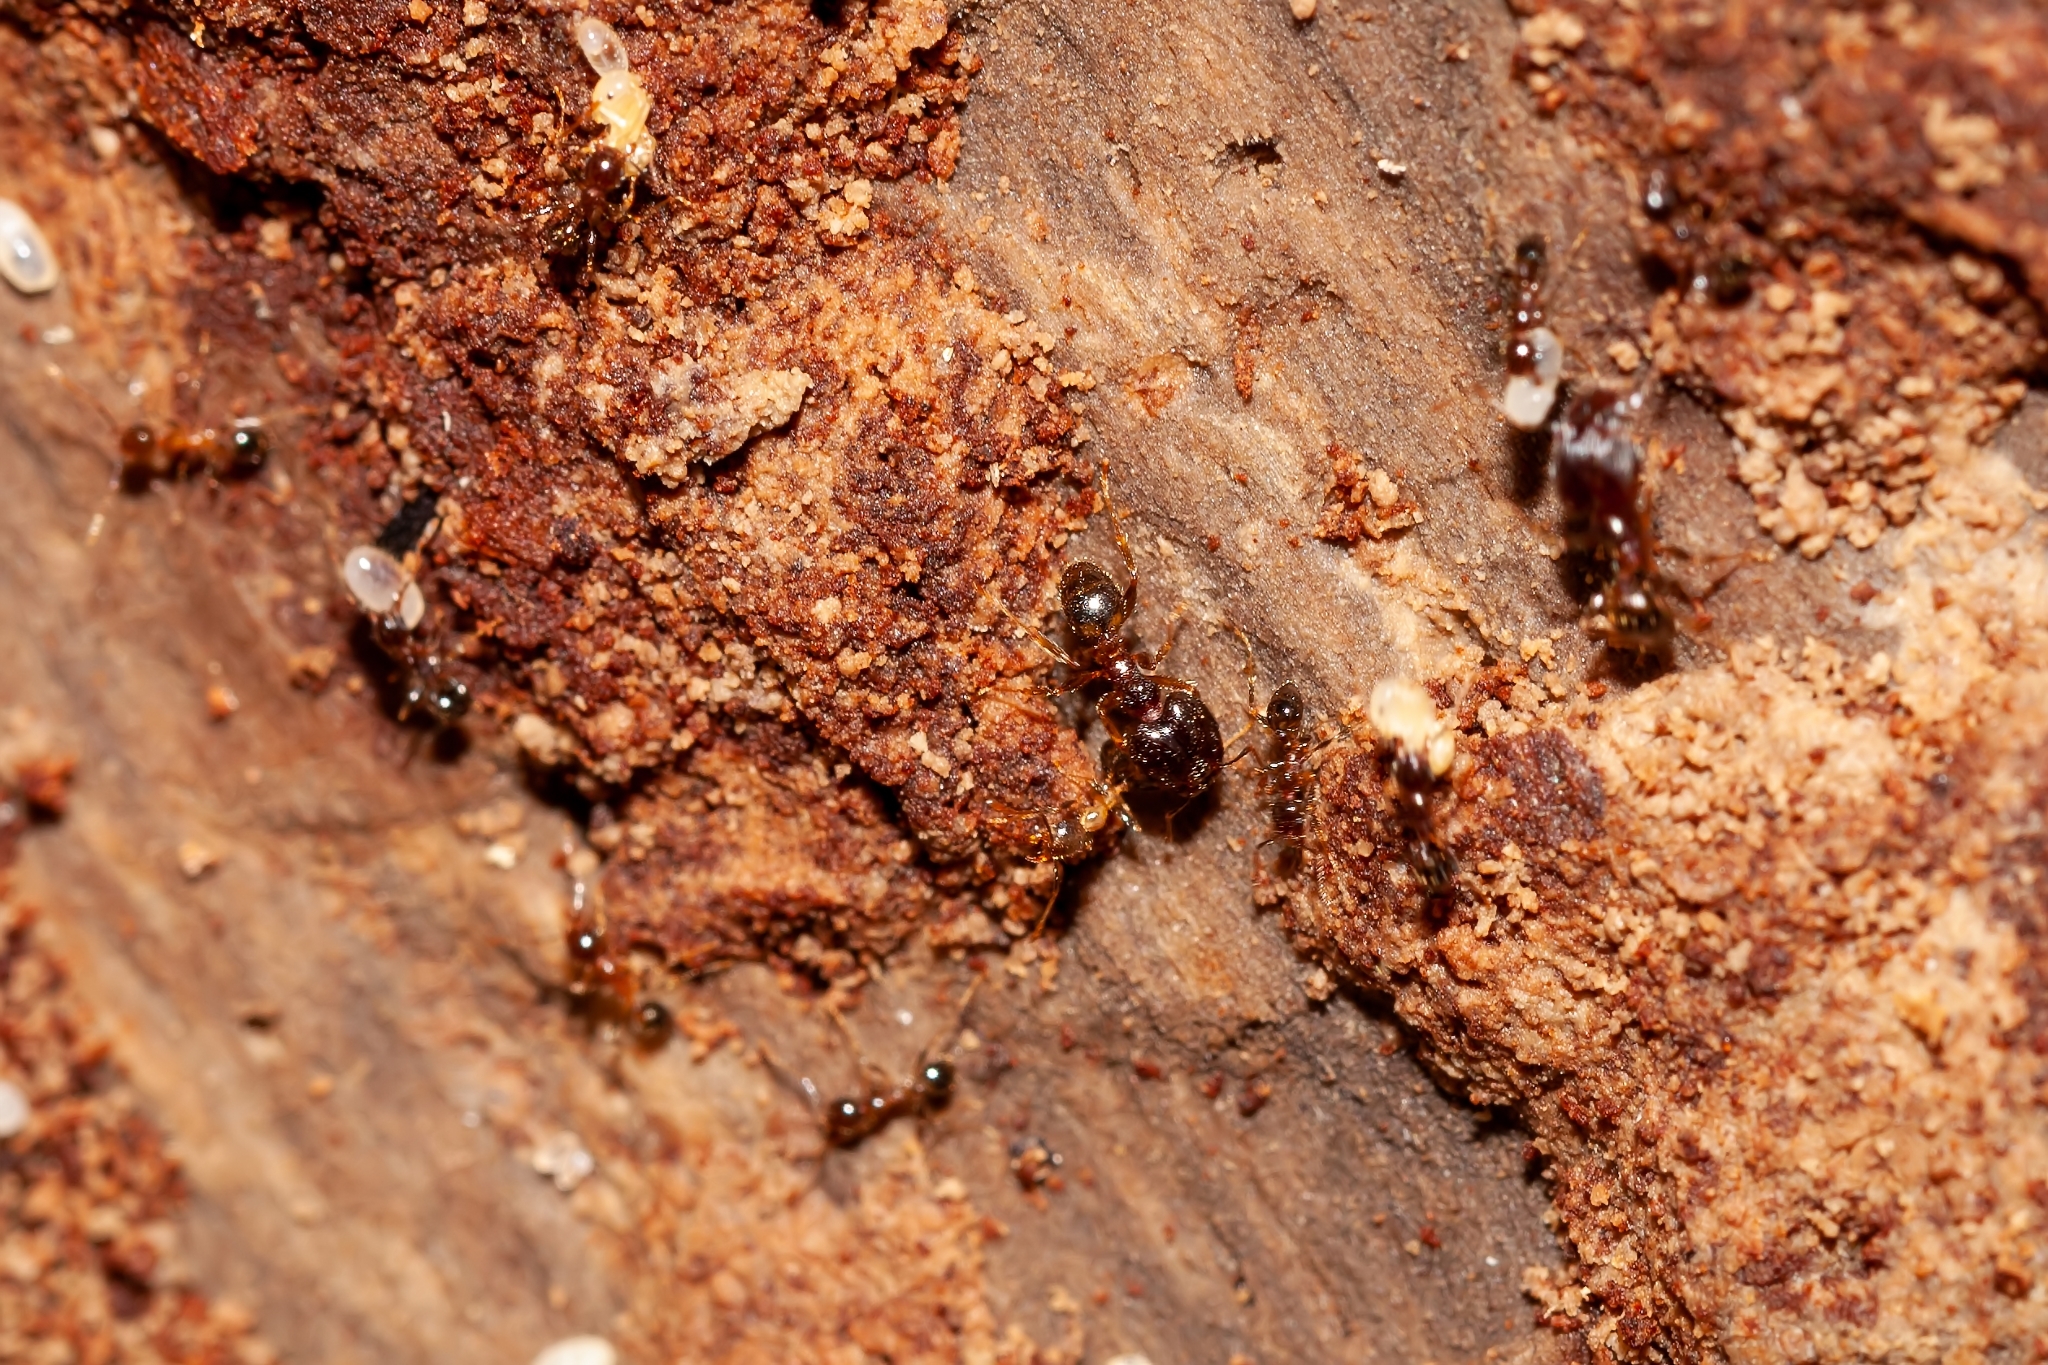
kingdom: Animalia
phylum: Arthropoda
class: Insecta
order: Hymenoptera
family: Formicidae
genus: Pheidole
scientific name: Pheidole megacephala
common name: Bigheaded ant
